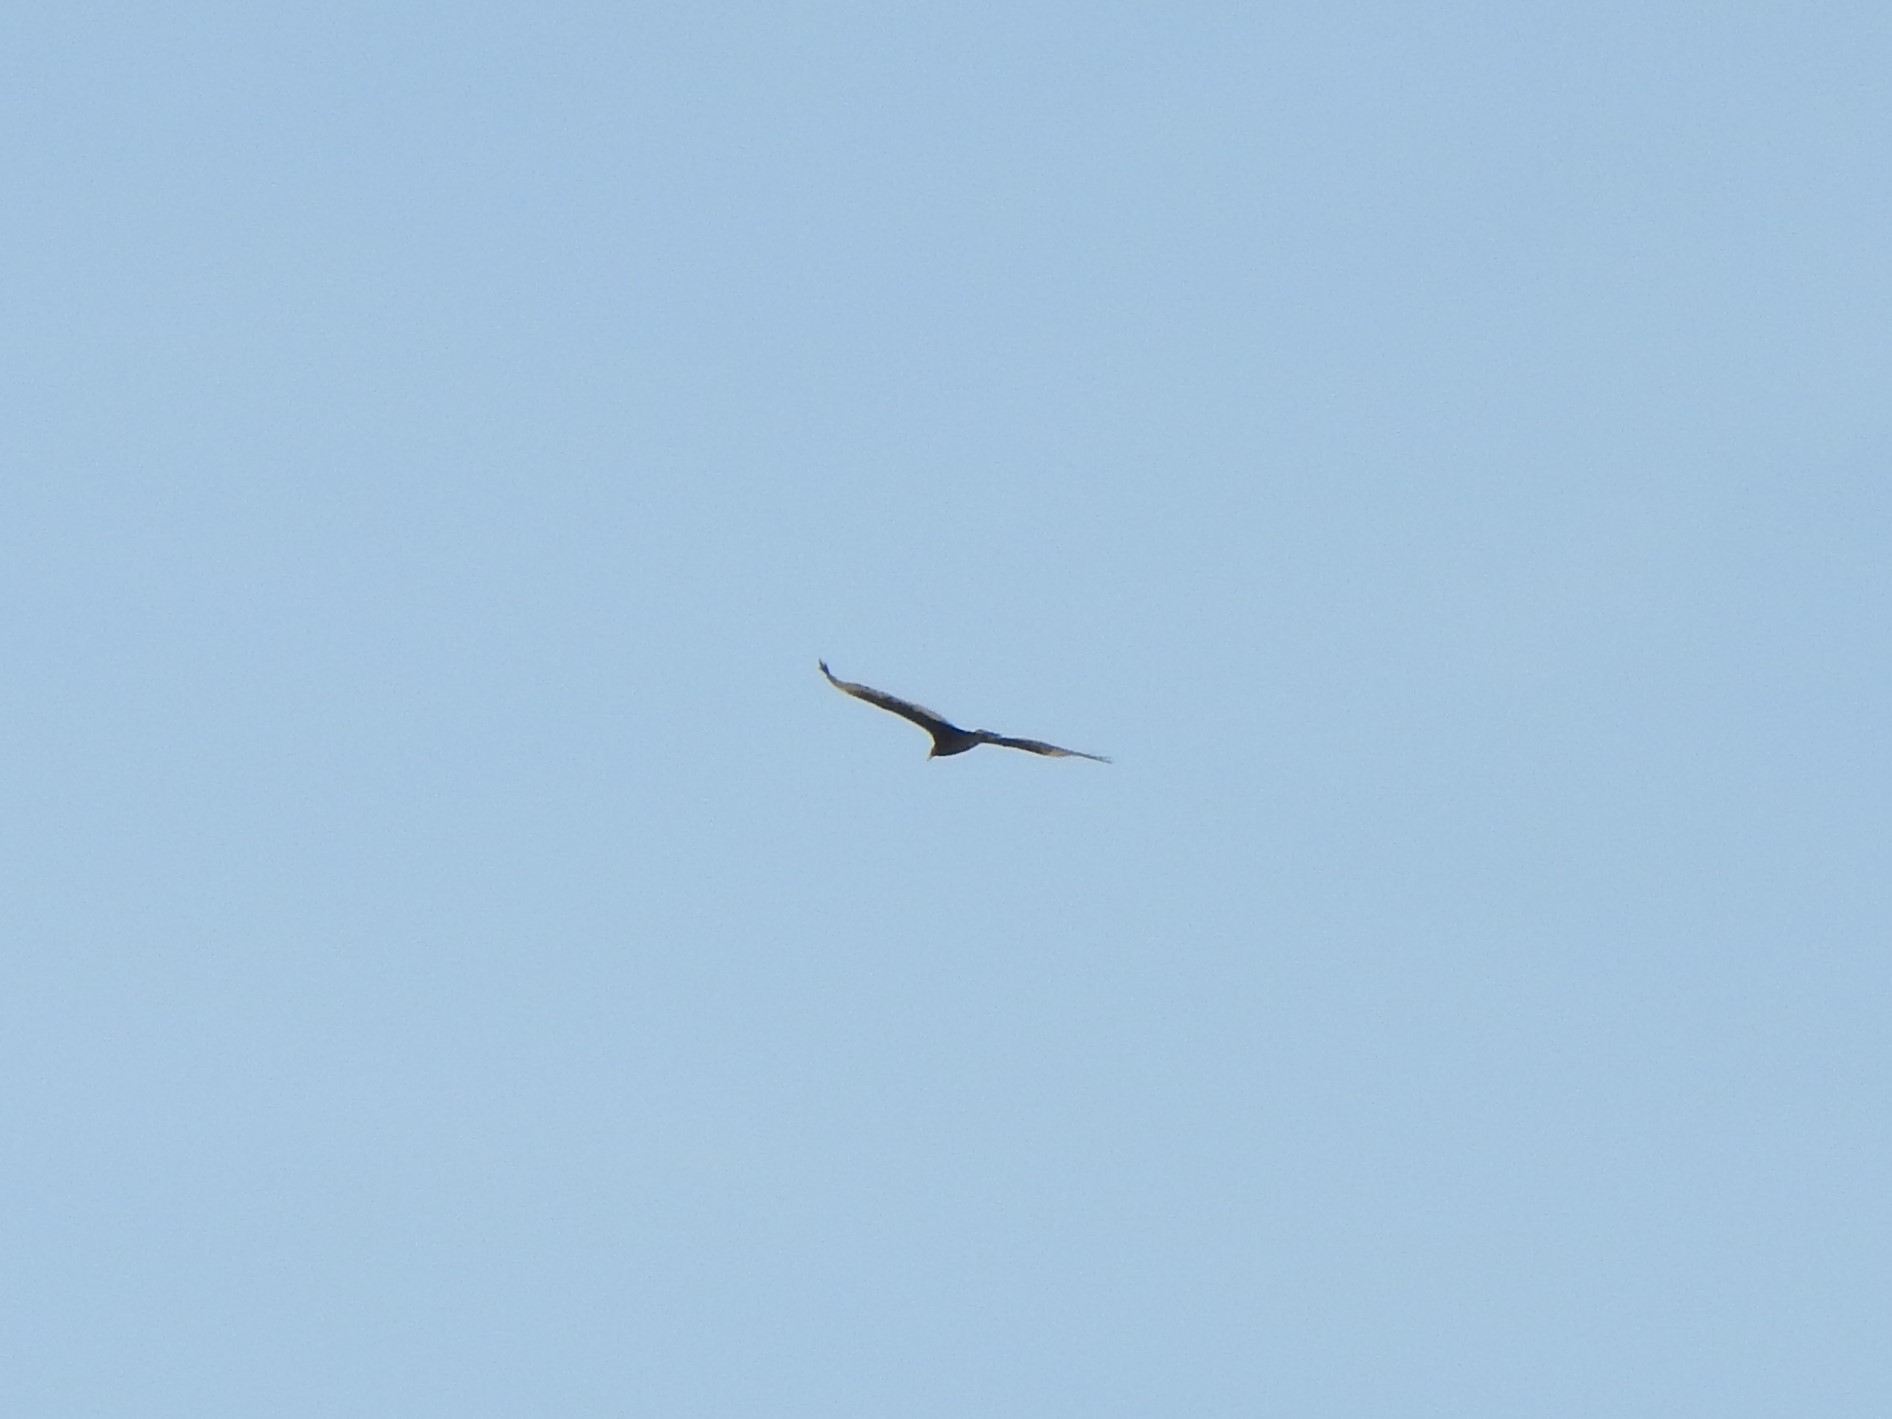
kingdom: Animalia
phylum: Chordata
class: Aves
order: Accipitriformes
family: Cathartidae
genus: Cathartes
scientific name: Cathartes aura
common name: Turkey vulture
